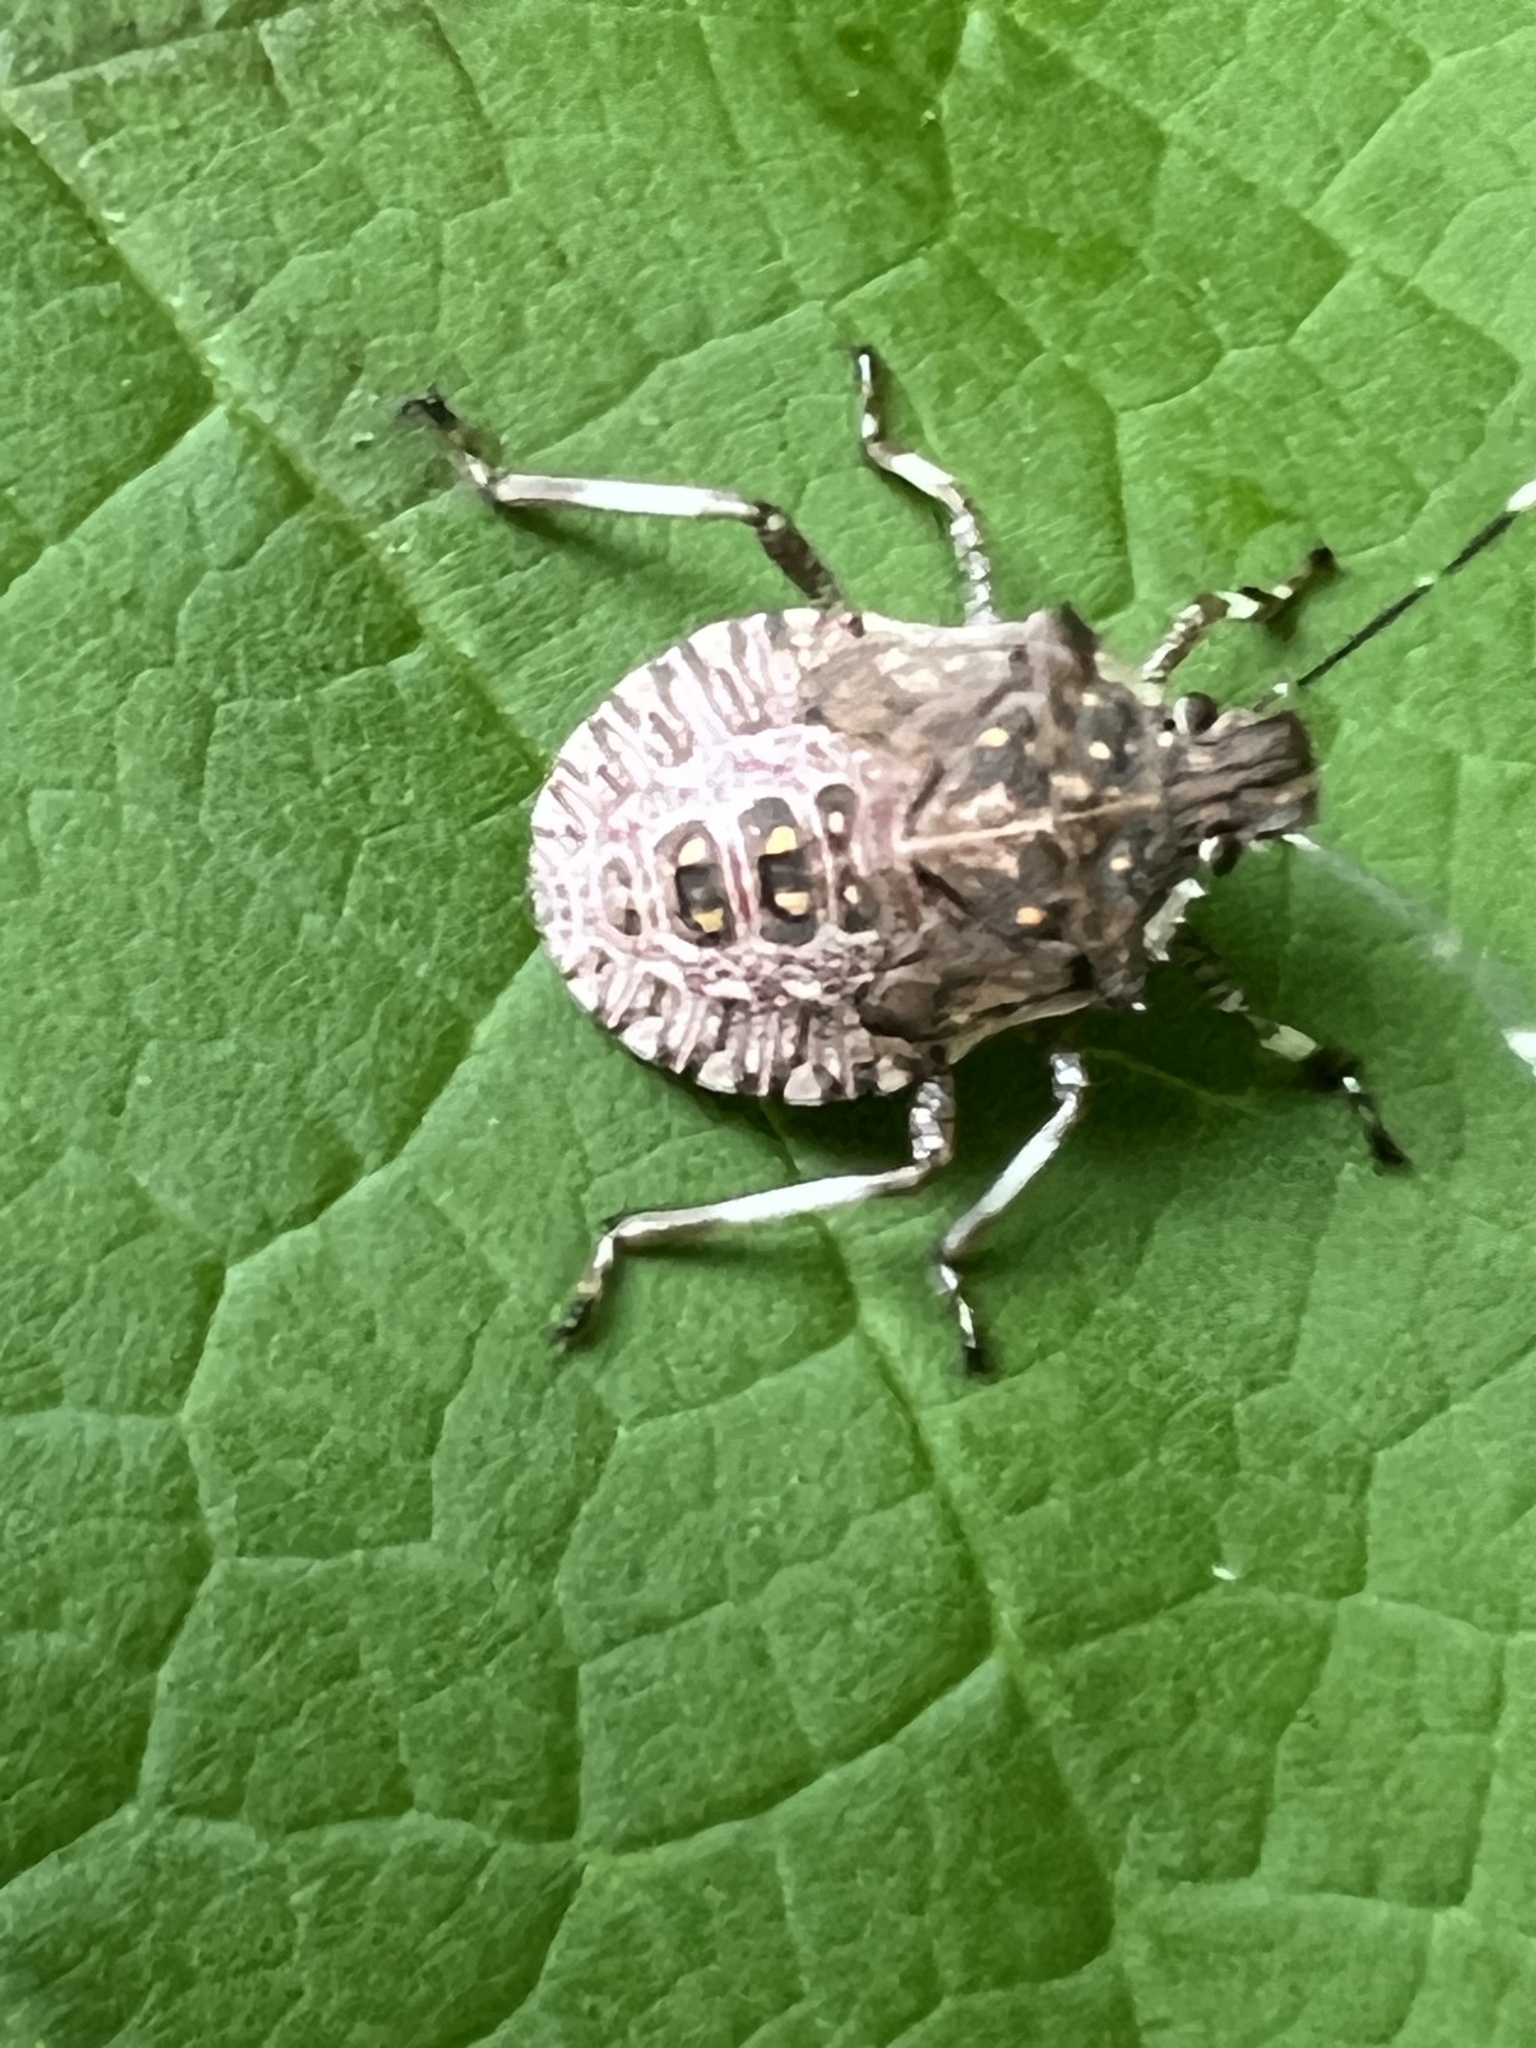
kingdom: Animalia
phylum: Arthropoda
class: Insecta
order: Hemiptera
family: Pentatomidae
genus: Halyomorpha
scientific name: Halyomorpha halys
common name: Brown marmorated stink bug
